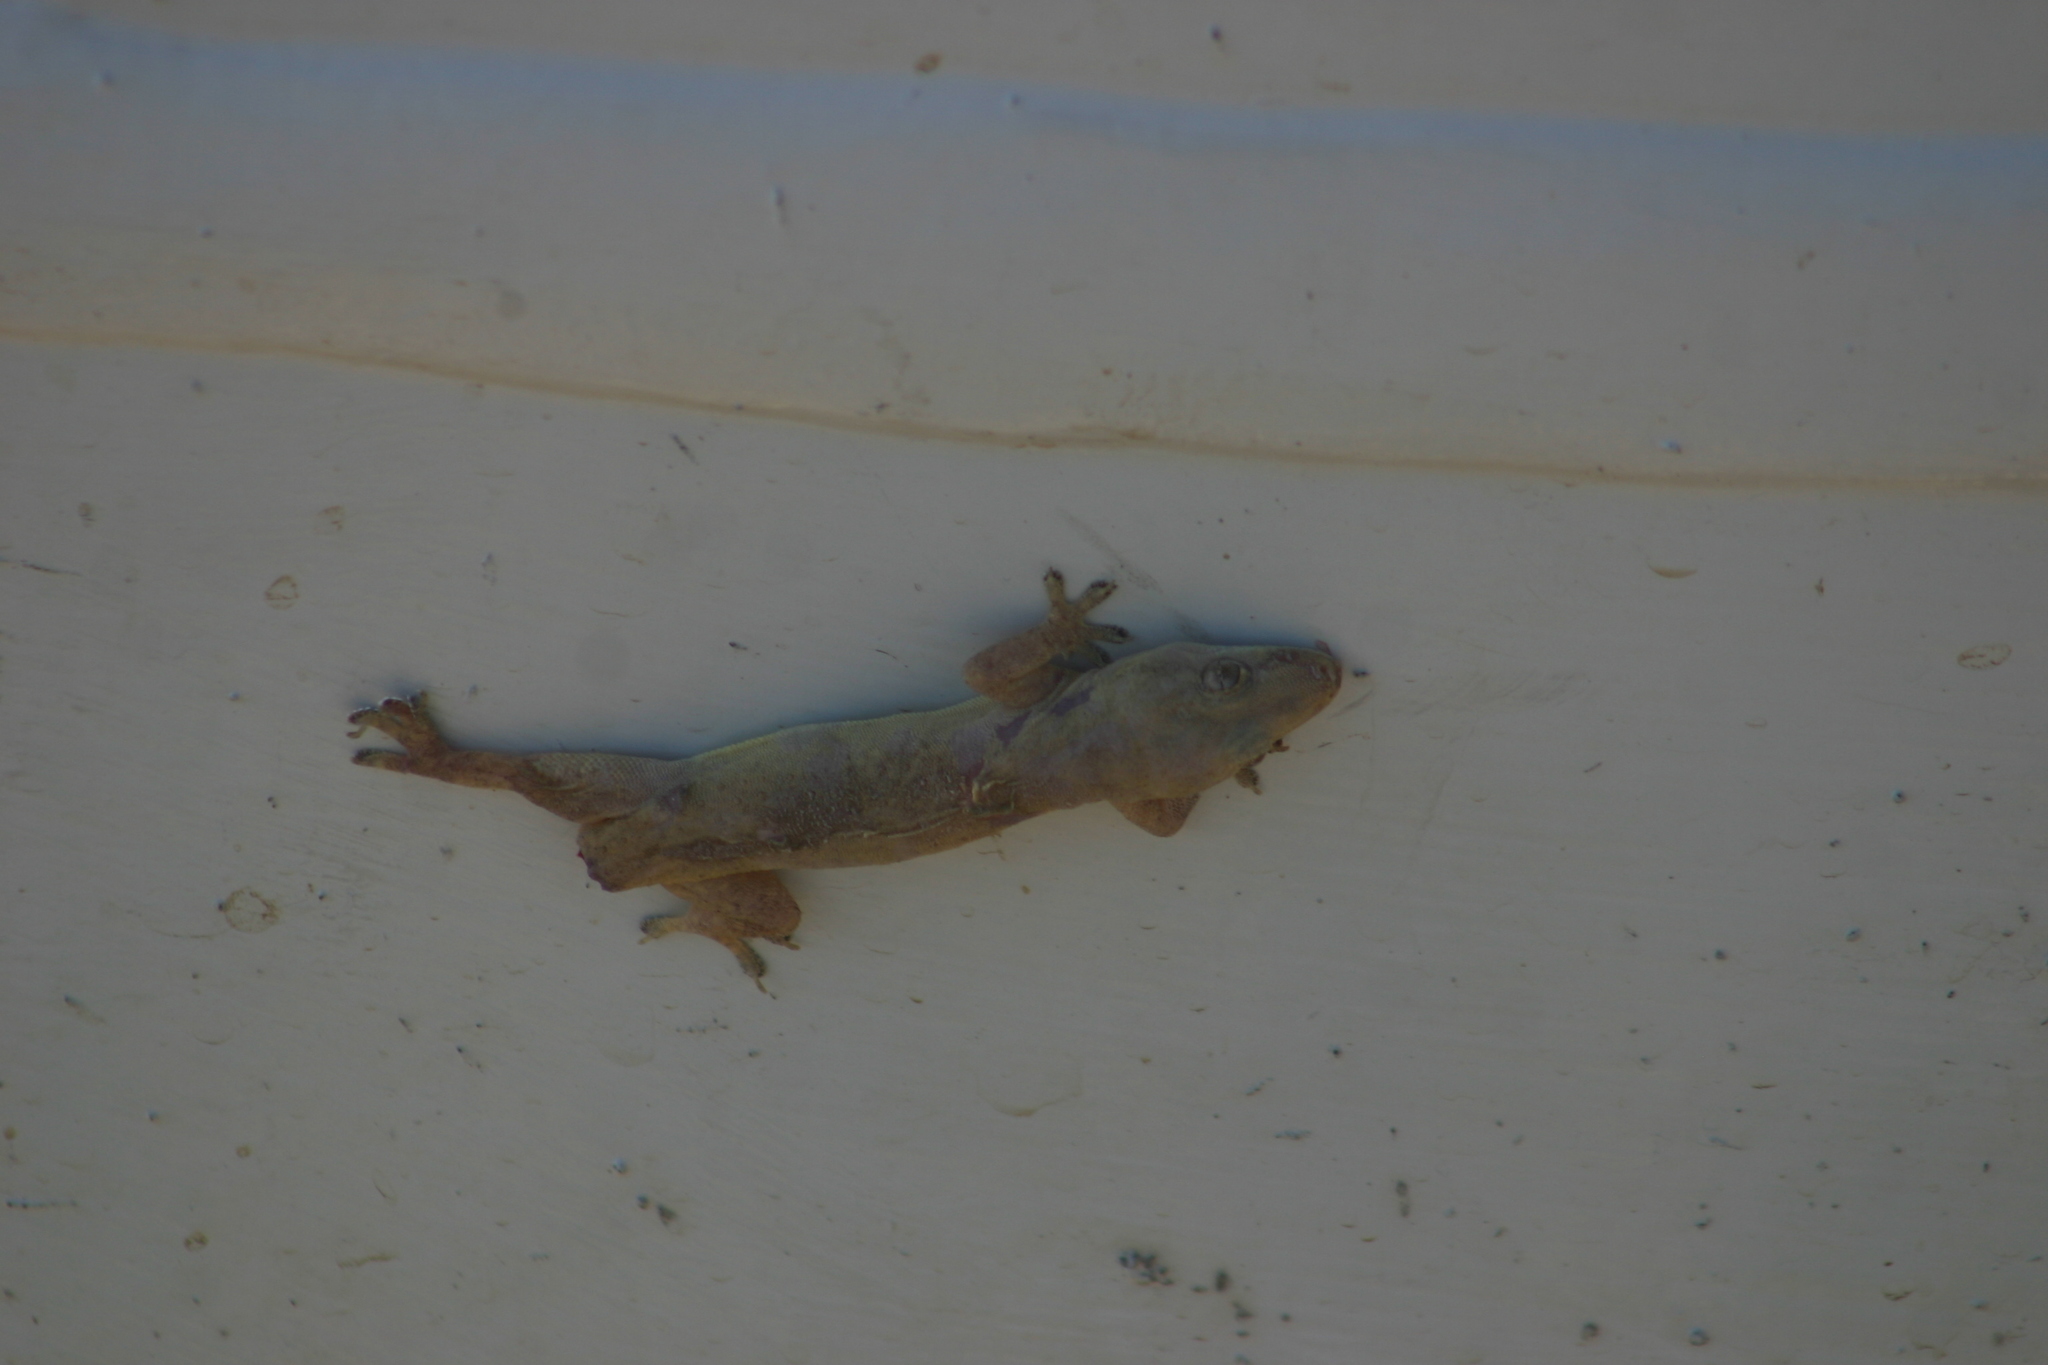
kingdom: Animalia
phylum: Chordata
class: Squamata
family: Gekkonidae
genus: Hemidactylus
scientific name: Hemidactylus frenatus
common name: Common house gecko
